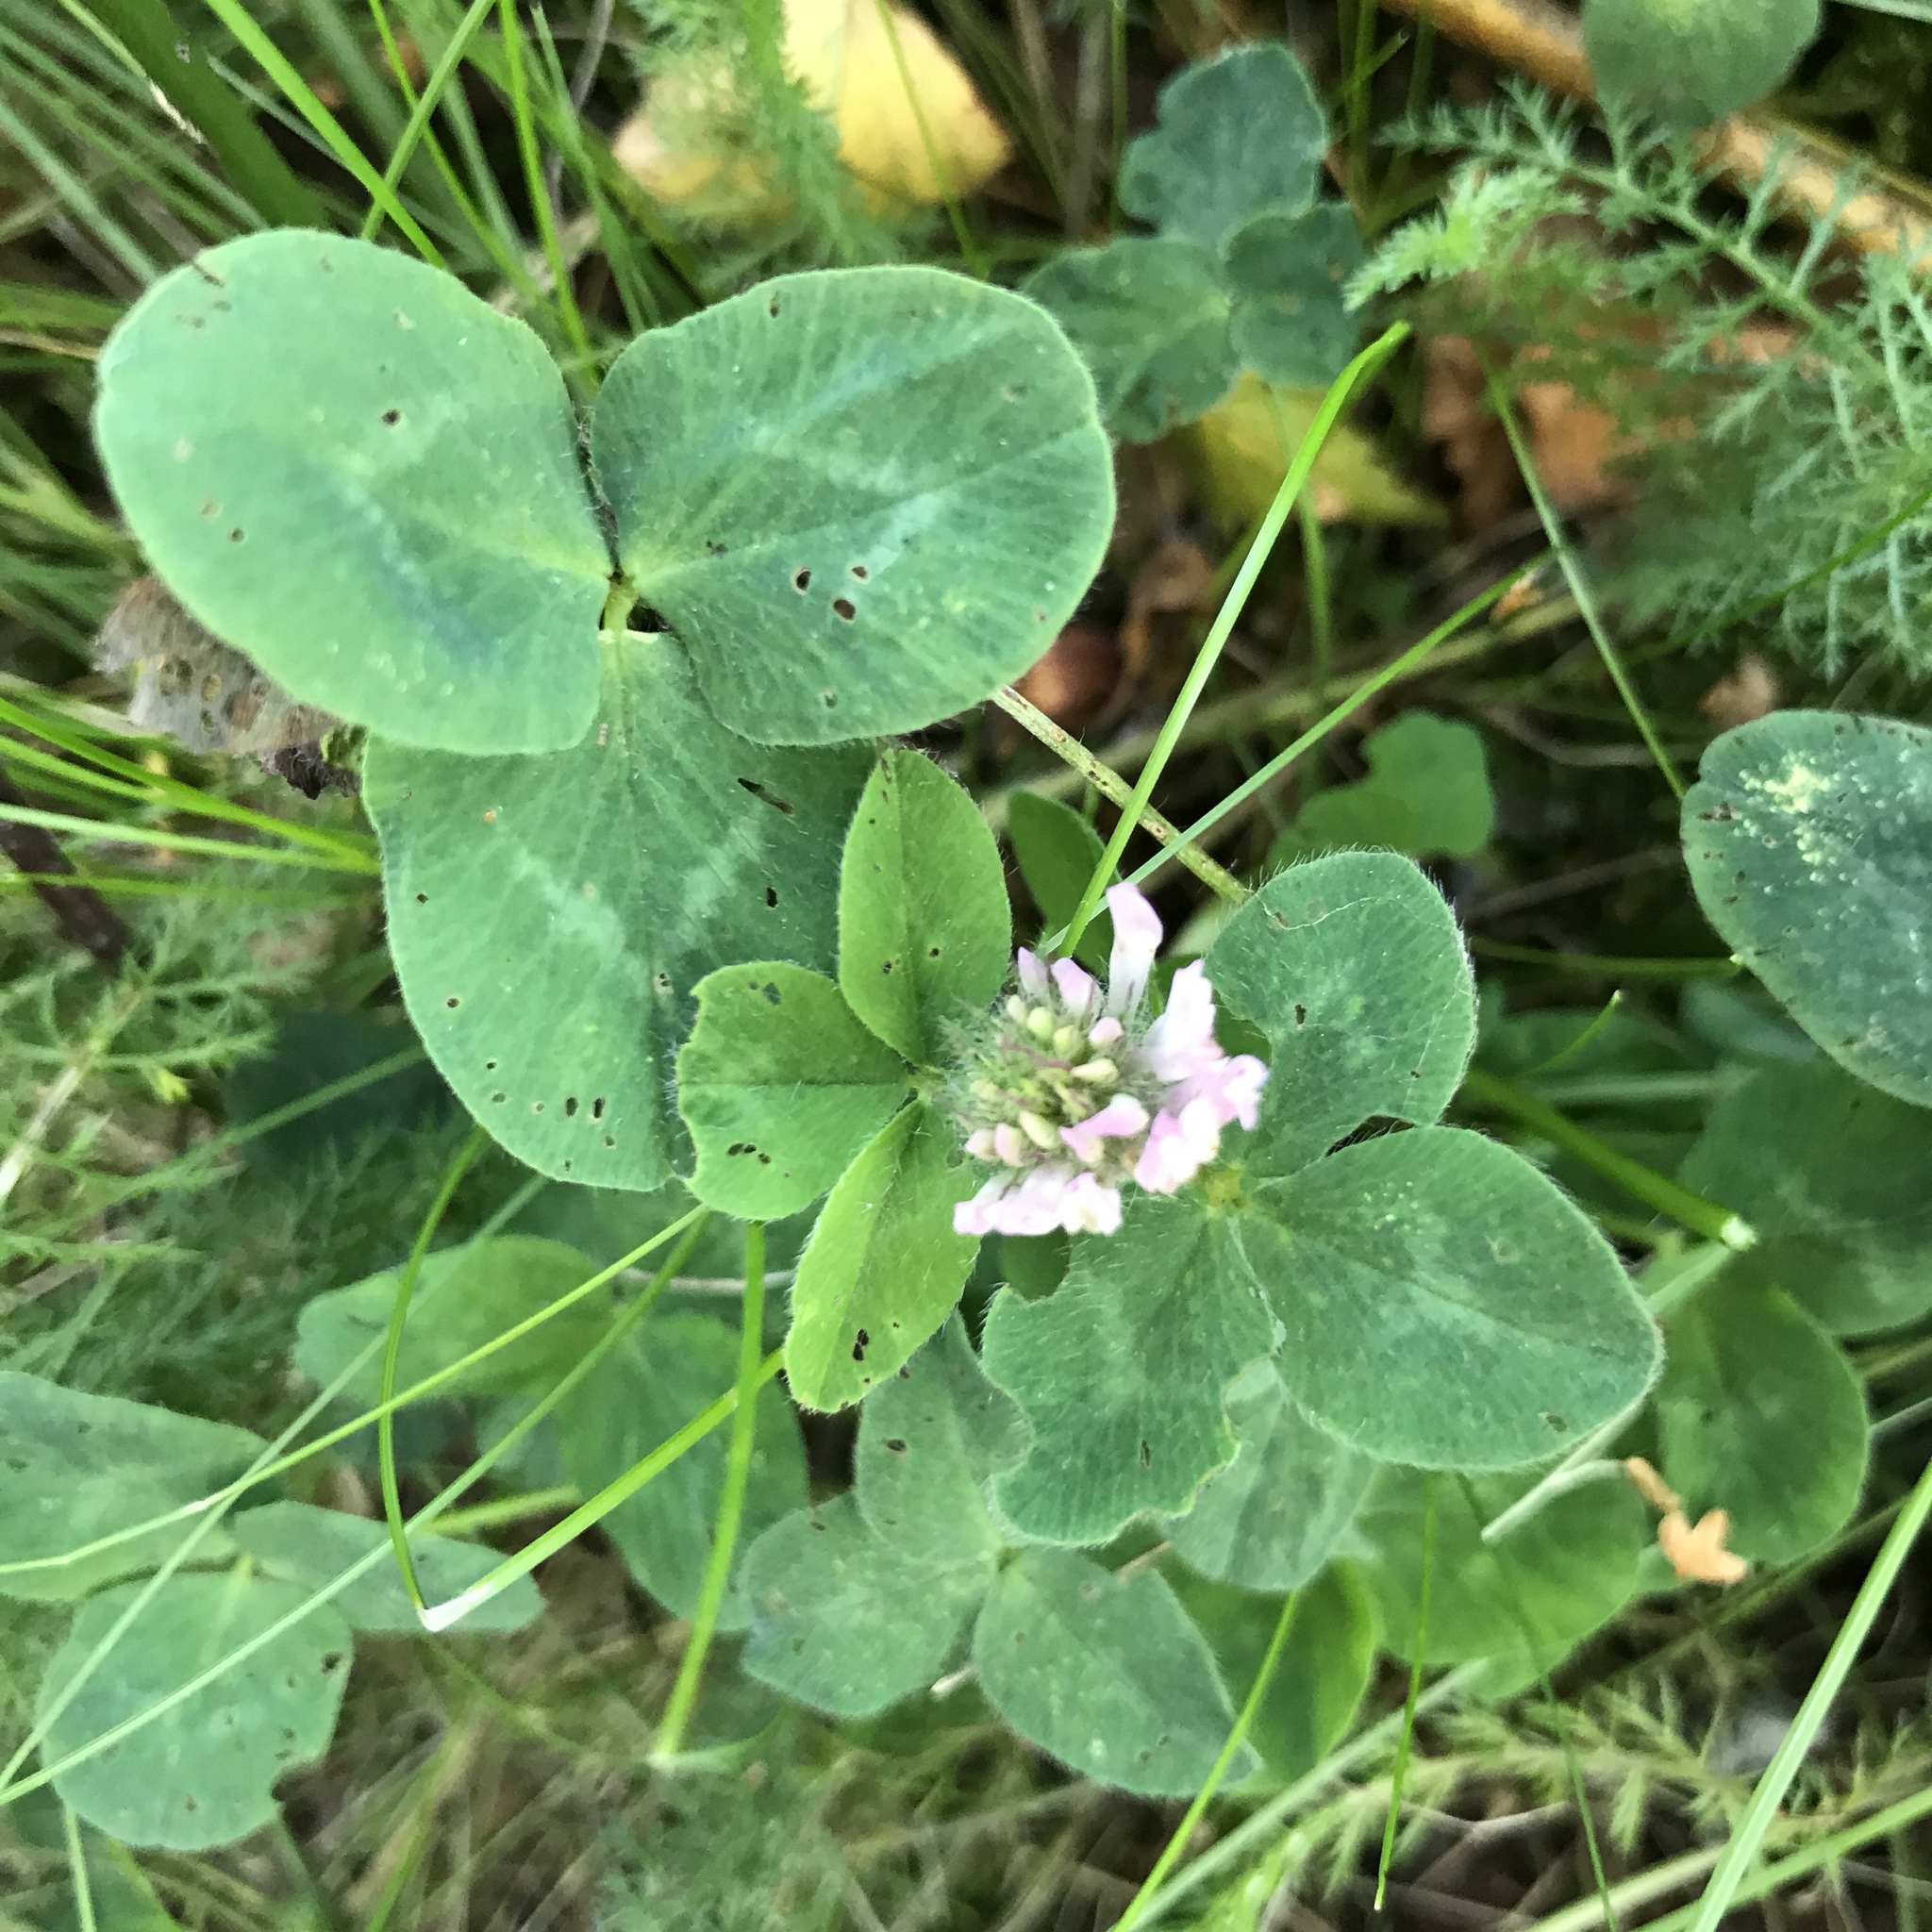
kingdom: Plantae
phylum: Tracheophyta
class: Magnoliopsida
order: Fabales
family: Fabaceae
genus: Trifolium
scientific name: Trifolium pratense
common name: Red clover
